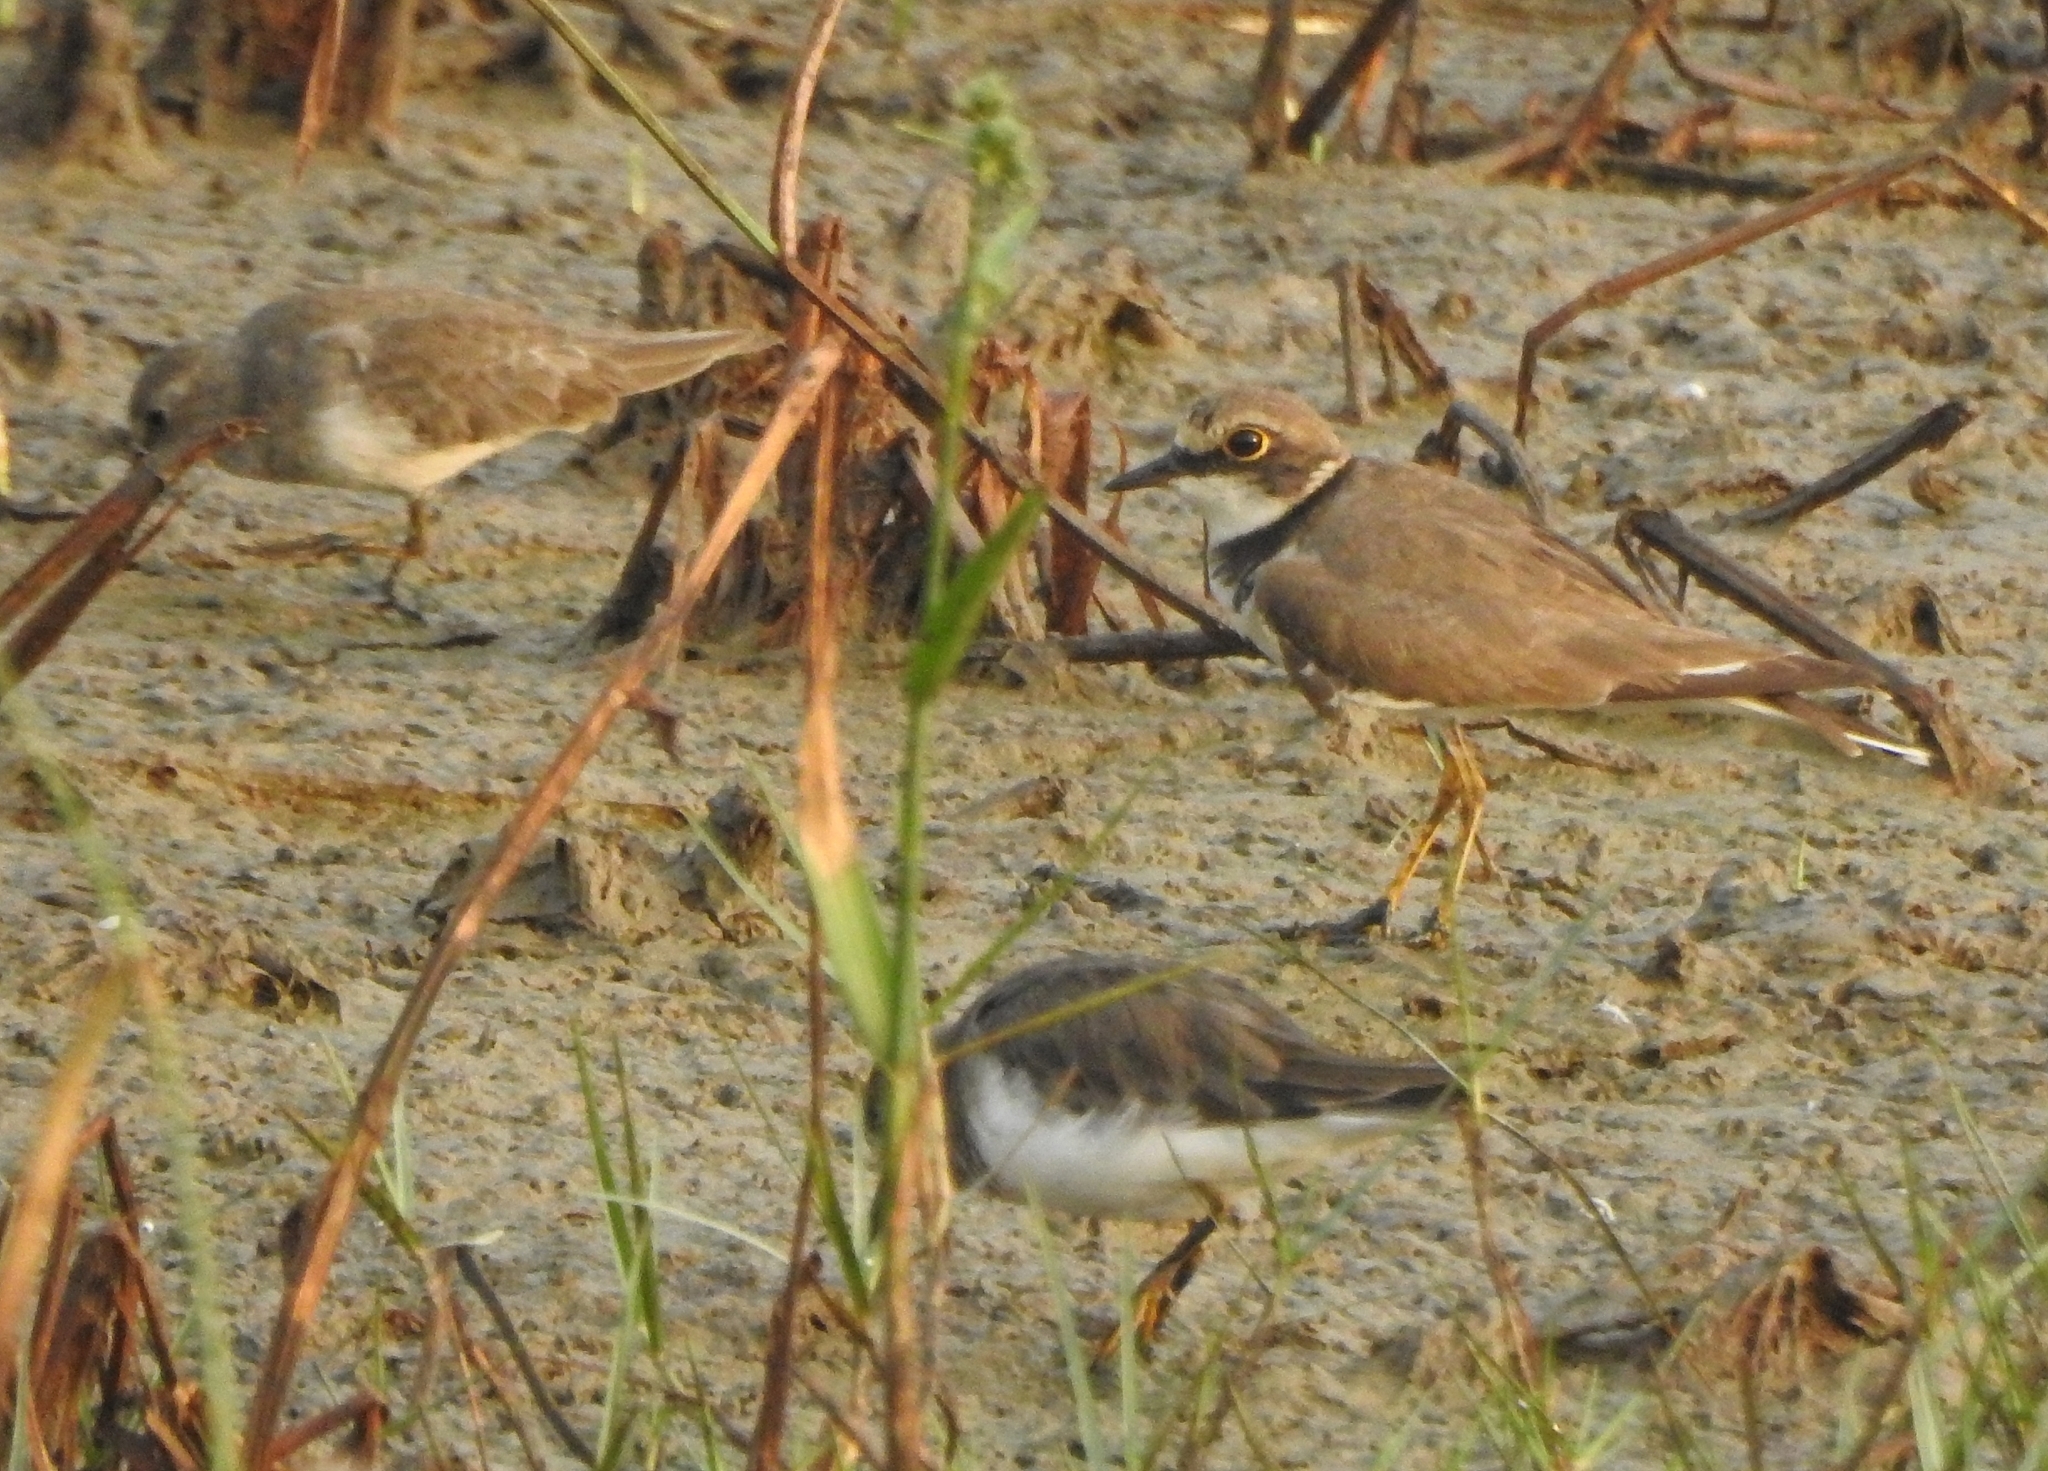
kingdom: Animalia
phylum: Chordata
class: Aves
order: Charadriiformes
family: Scolopacidae
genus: Calidris
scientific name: Calidris temminckii
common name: Temminck's stint
